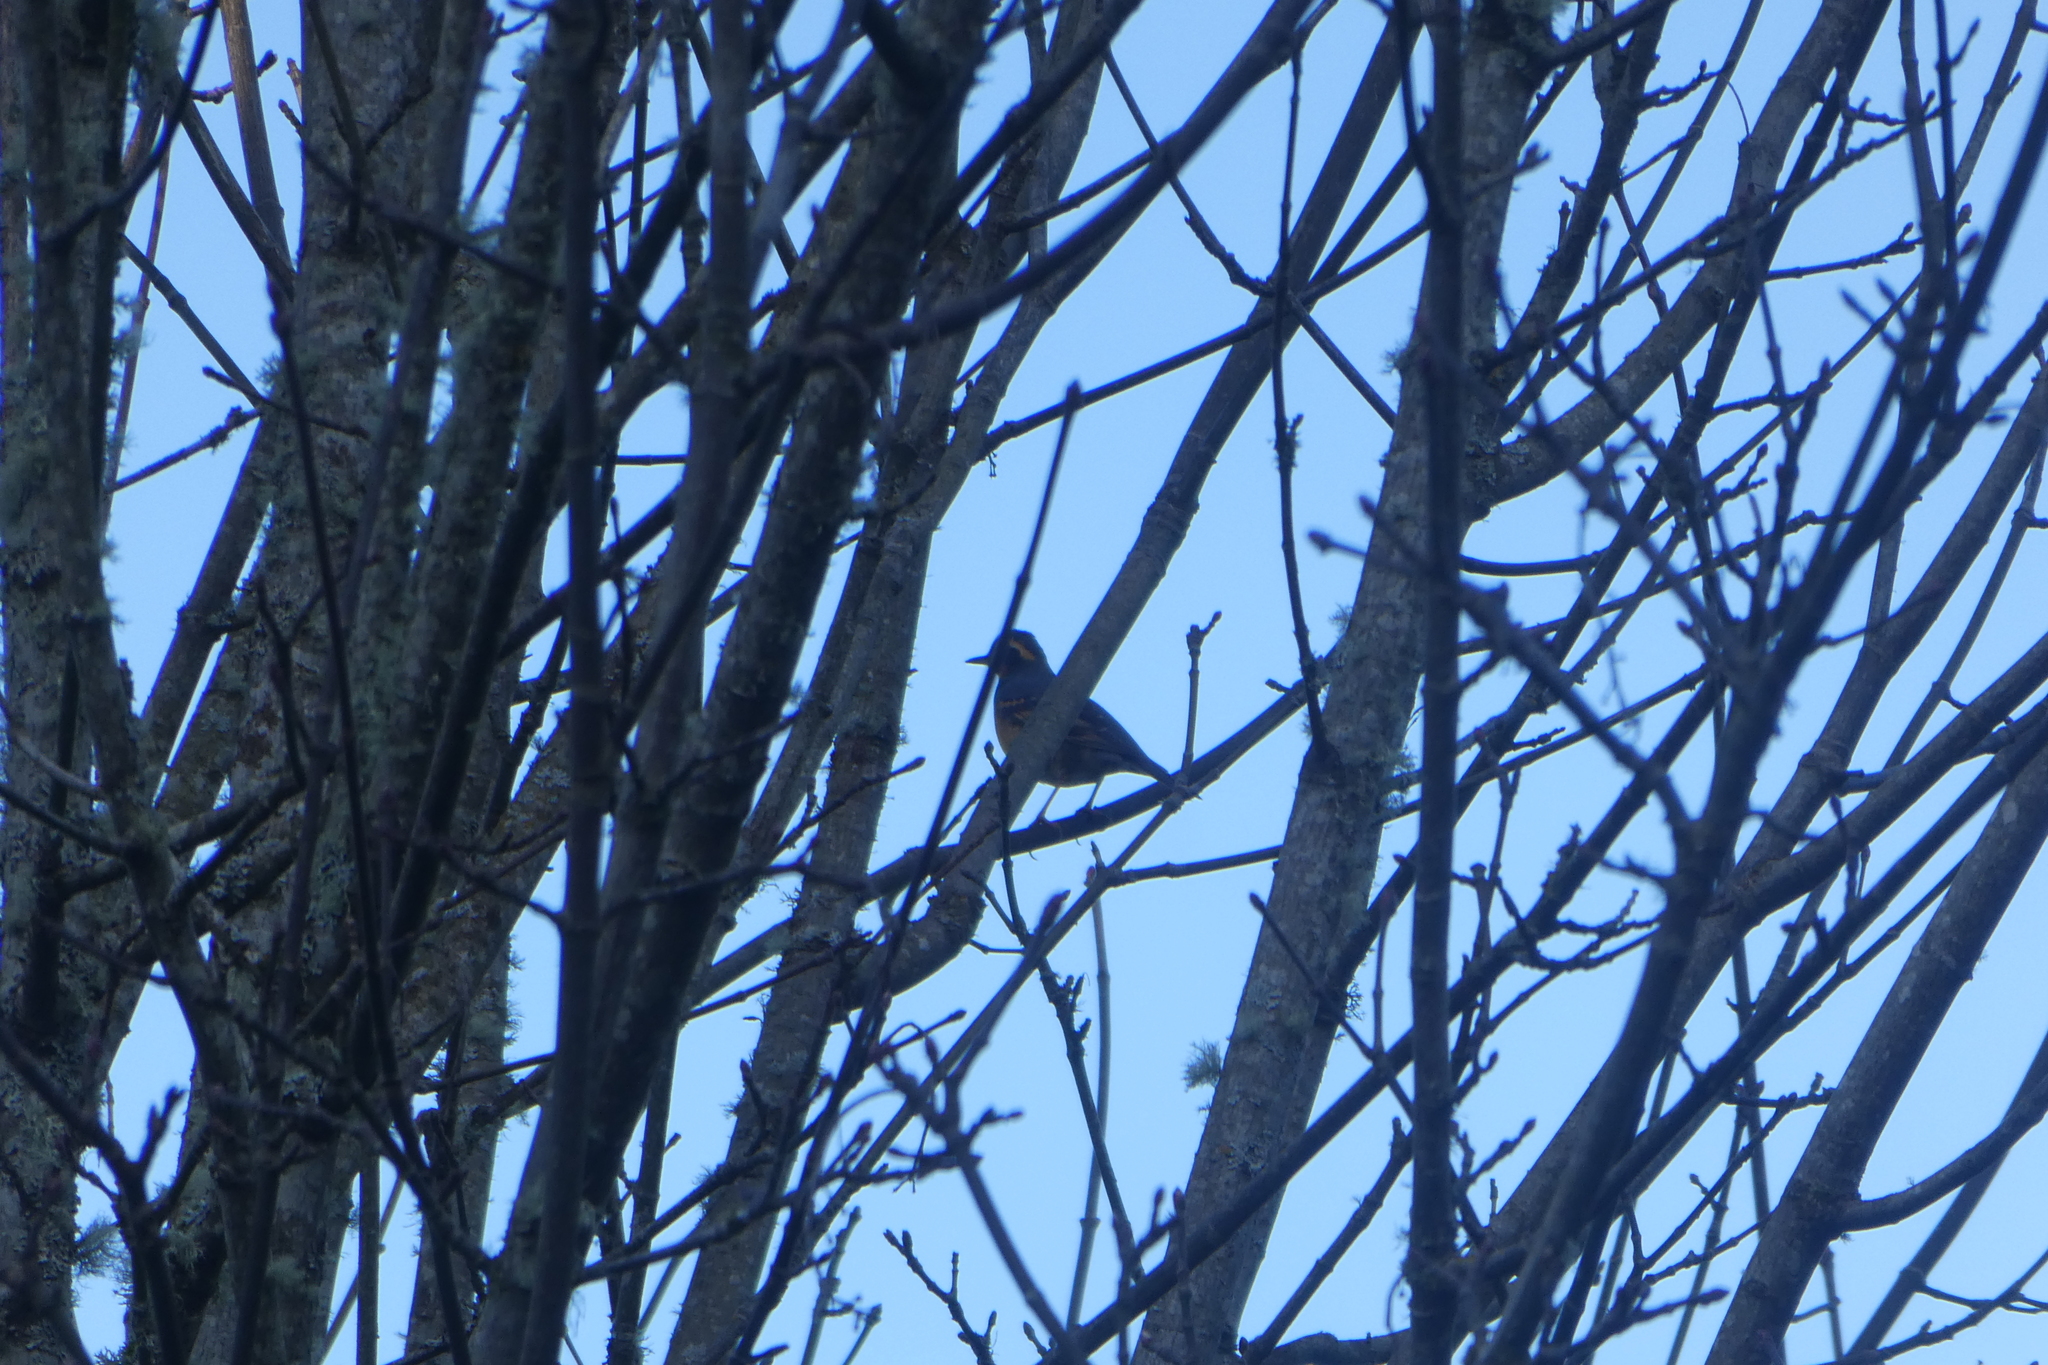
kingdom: Animalia
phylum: Chordata
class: Aves
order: Passeriformes
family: Turdidae
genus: Ixoreus
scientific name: Ixoreus naevius
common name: Varied thrush
